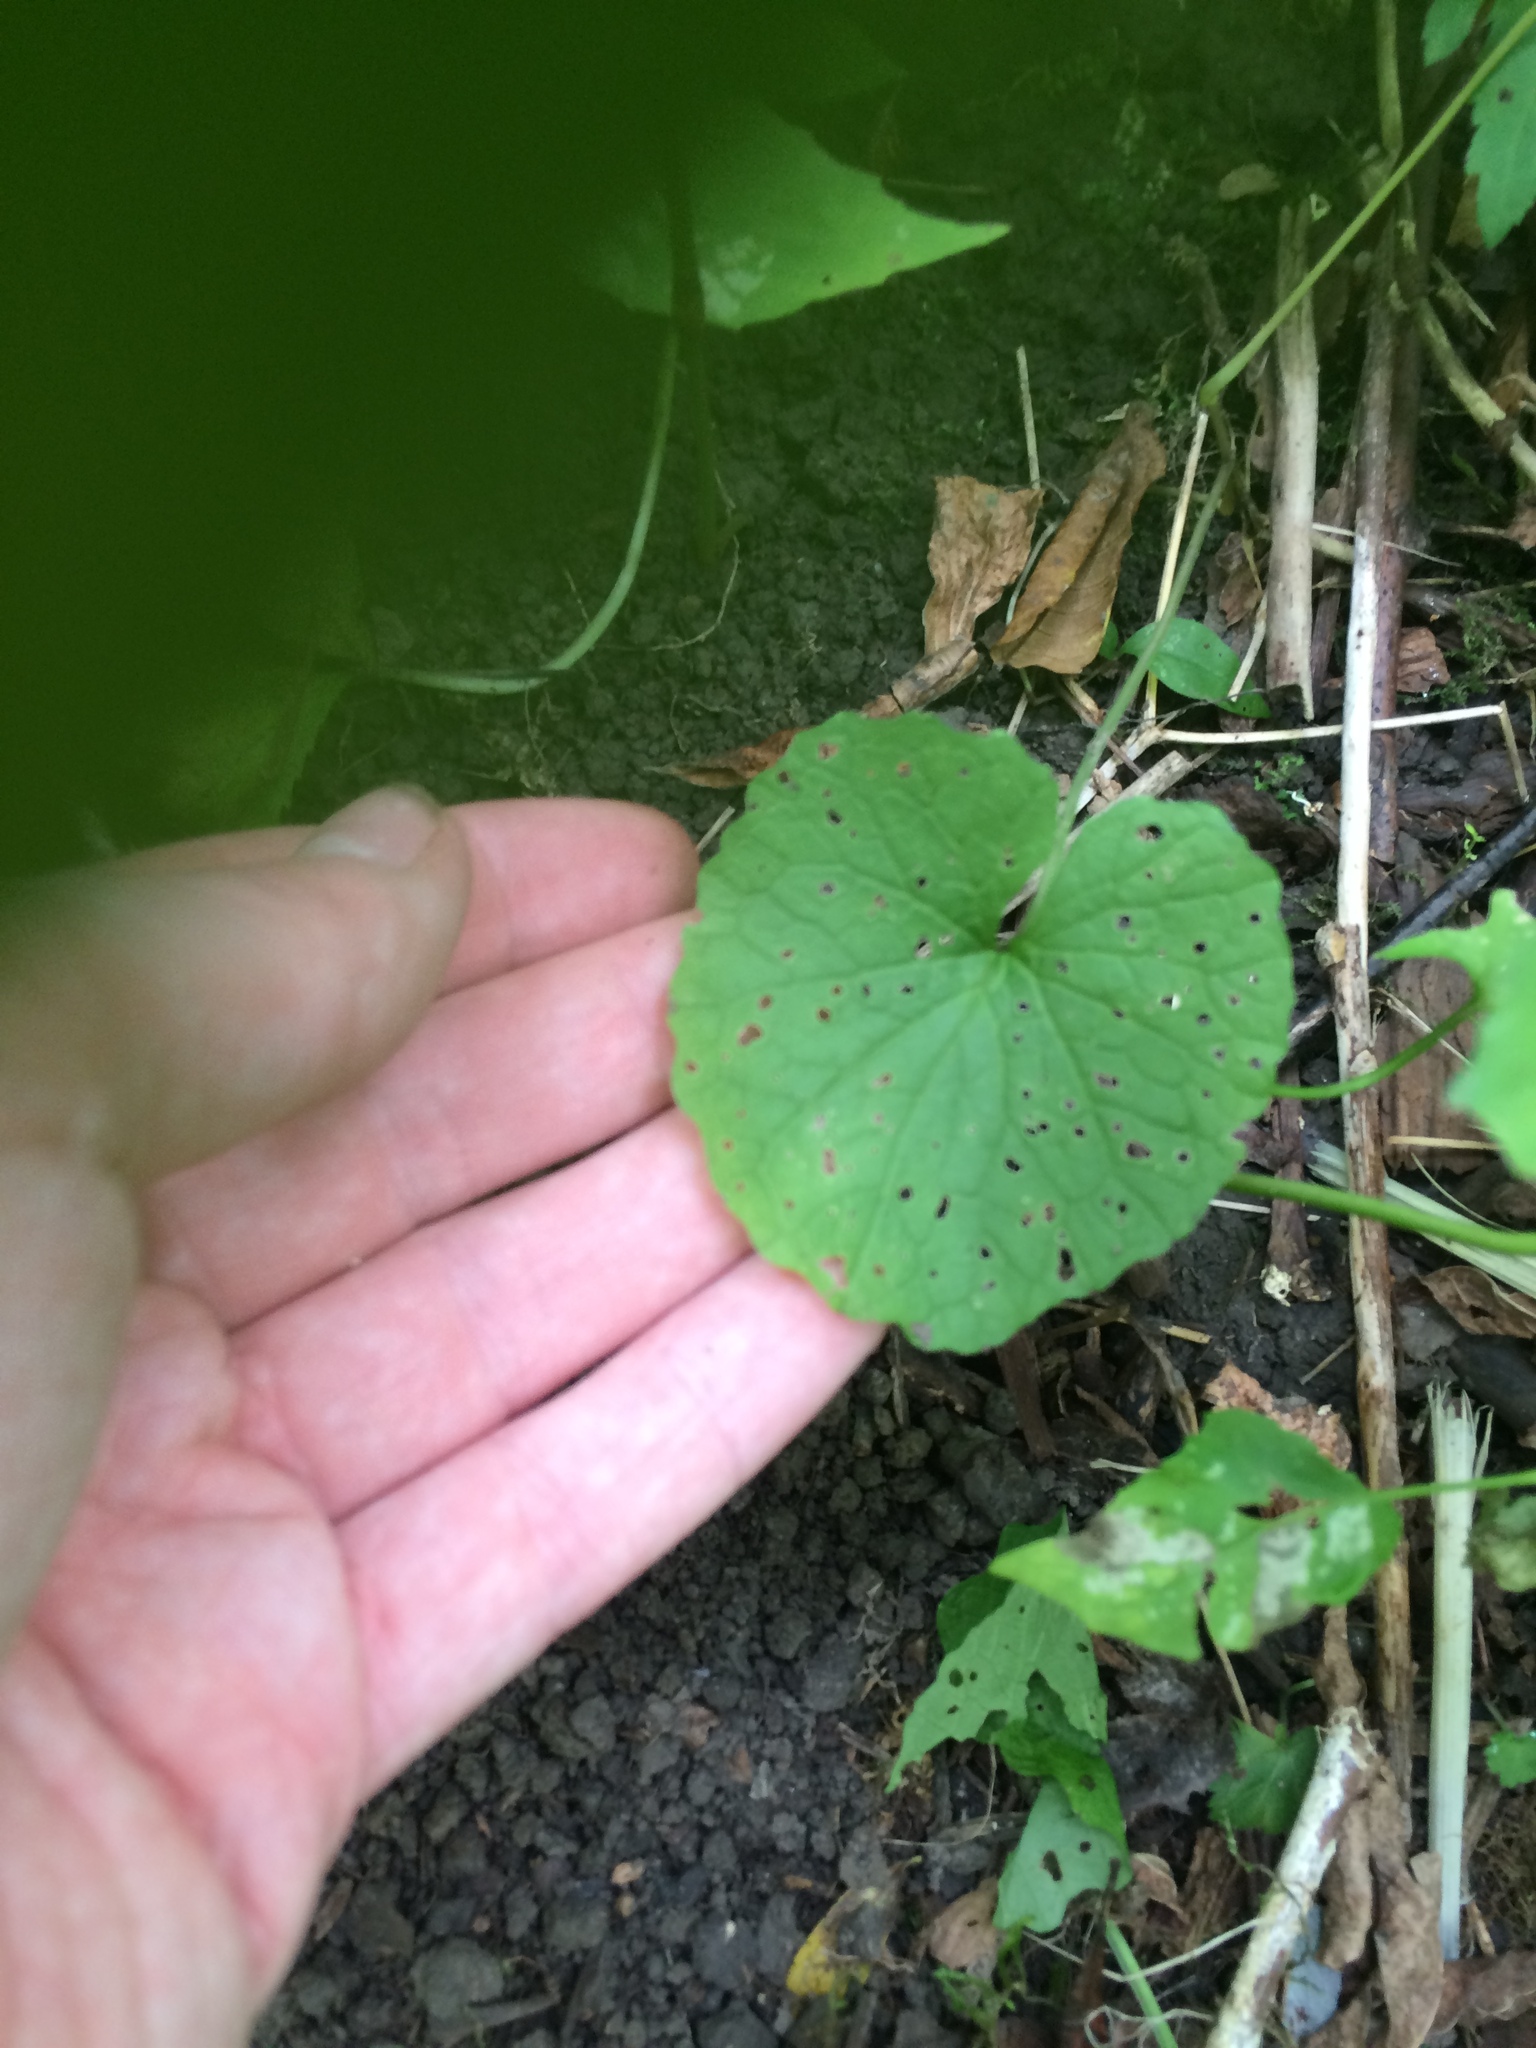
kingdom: Plantae
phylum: Tracheophyta
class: Magnoliopsida
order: Brassicales
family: Brassicaceae
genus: Alliaria
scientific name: Alliaria petiolata
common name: Garlic mustard
